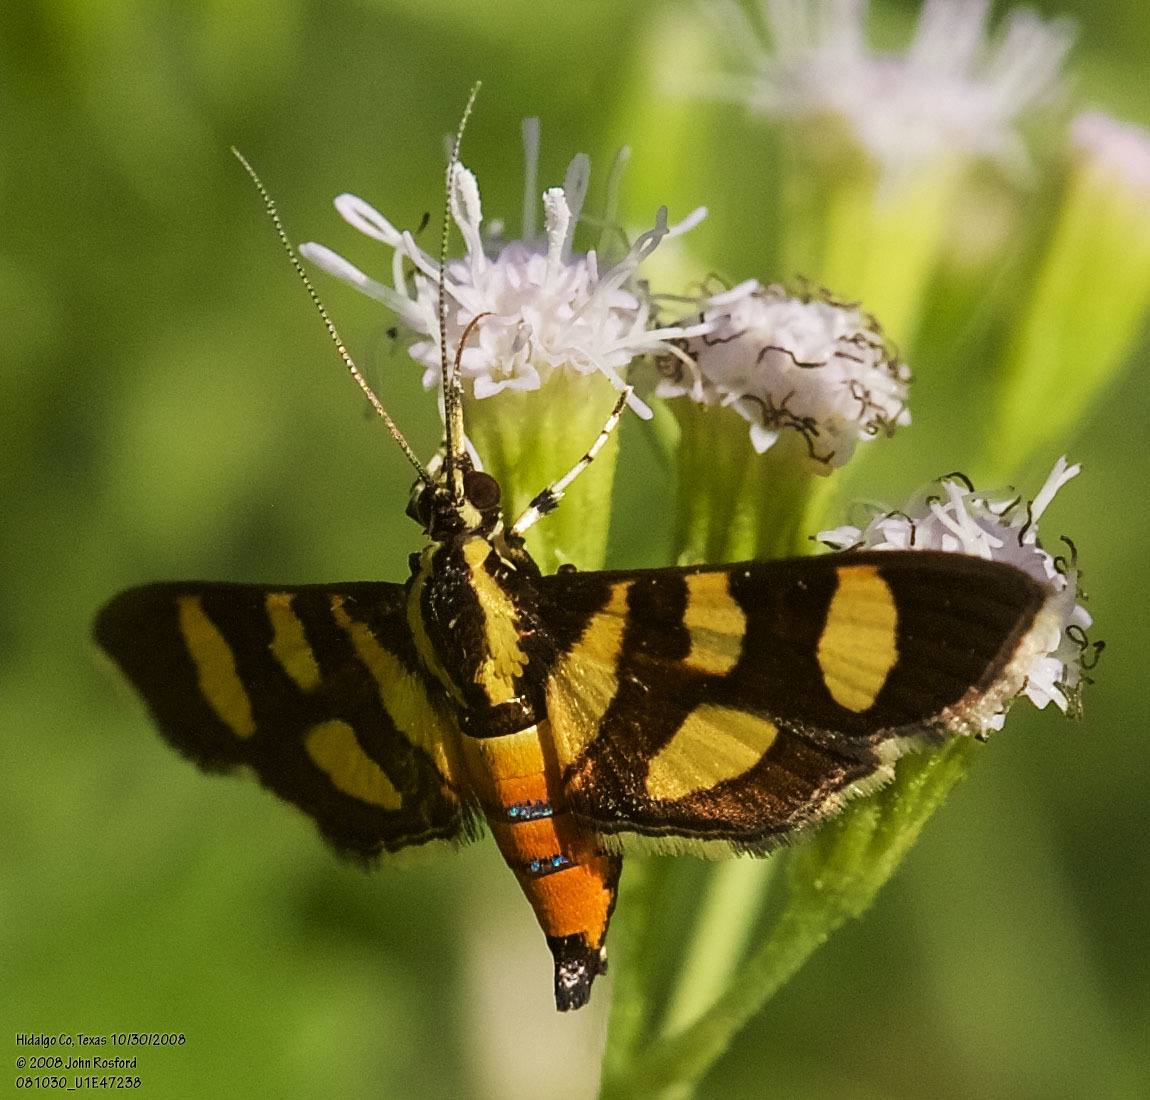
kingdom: Animalia
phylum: Arthropoda
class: Insecta
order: Lepidoptera
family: Crambidae
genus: Syngamia
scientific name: Syngamia florella
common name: Orange-spotted flower moth
